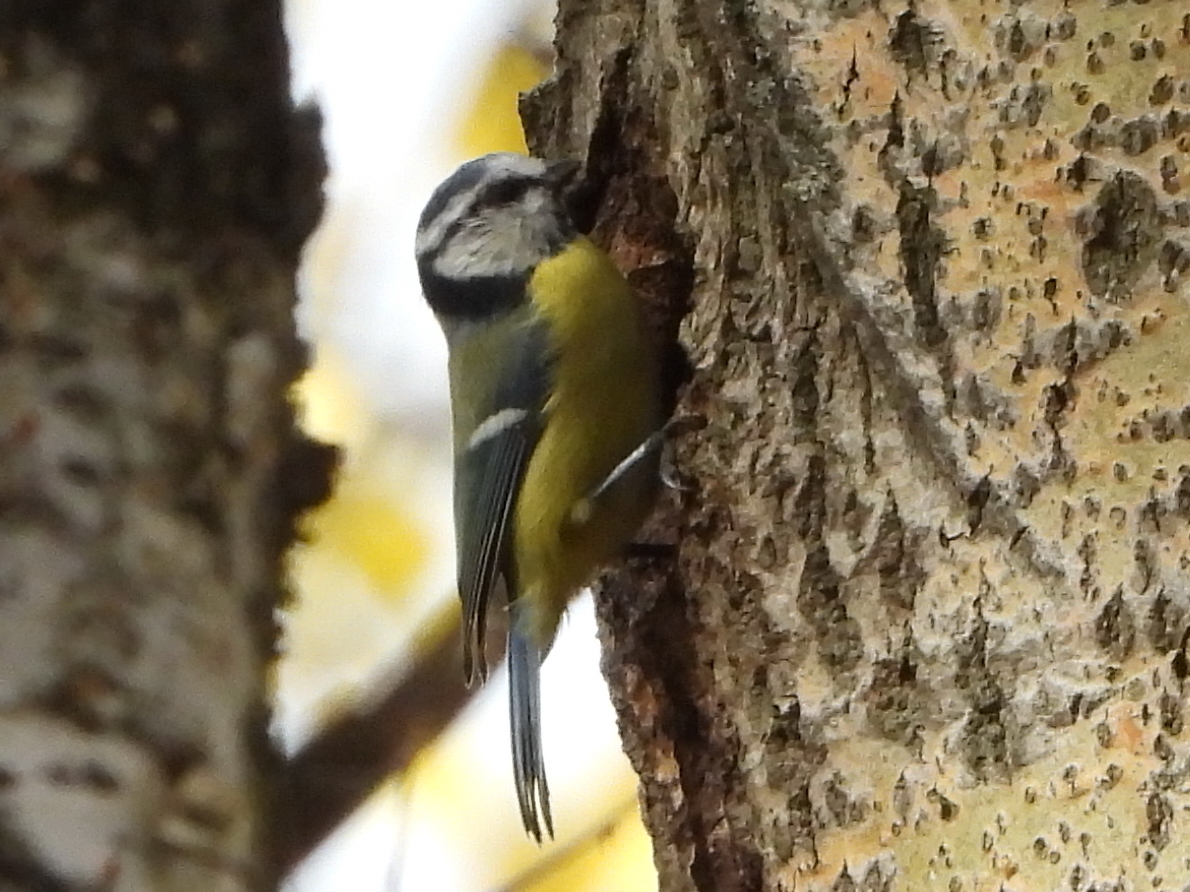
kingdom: Animalia
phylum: Chordata
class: Aves
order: Passeriformes
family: Paridae
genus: Cyanistes
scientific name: Cyanistes caeruleus
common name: Eurasian blue tit
